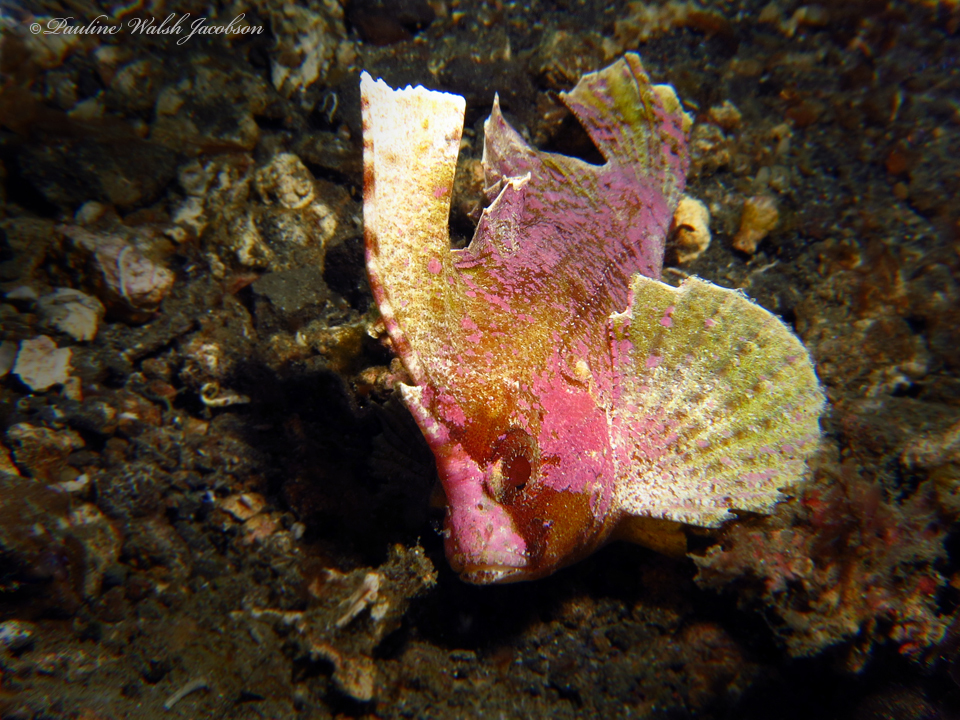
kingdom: Animalia
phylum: Chordata
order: Scorpaeniformes
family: Tetrarogidae
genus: Ablabys
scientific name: Ablabys taenianotus
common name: Cockatoo waspfish
